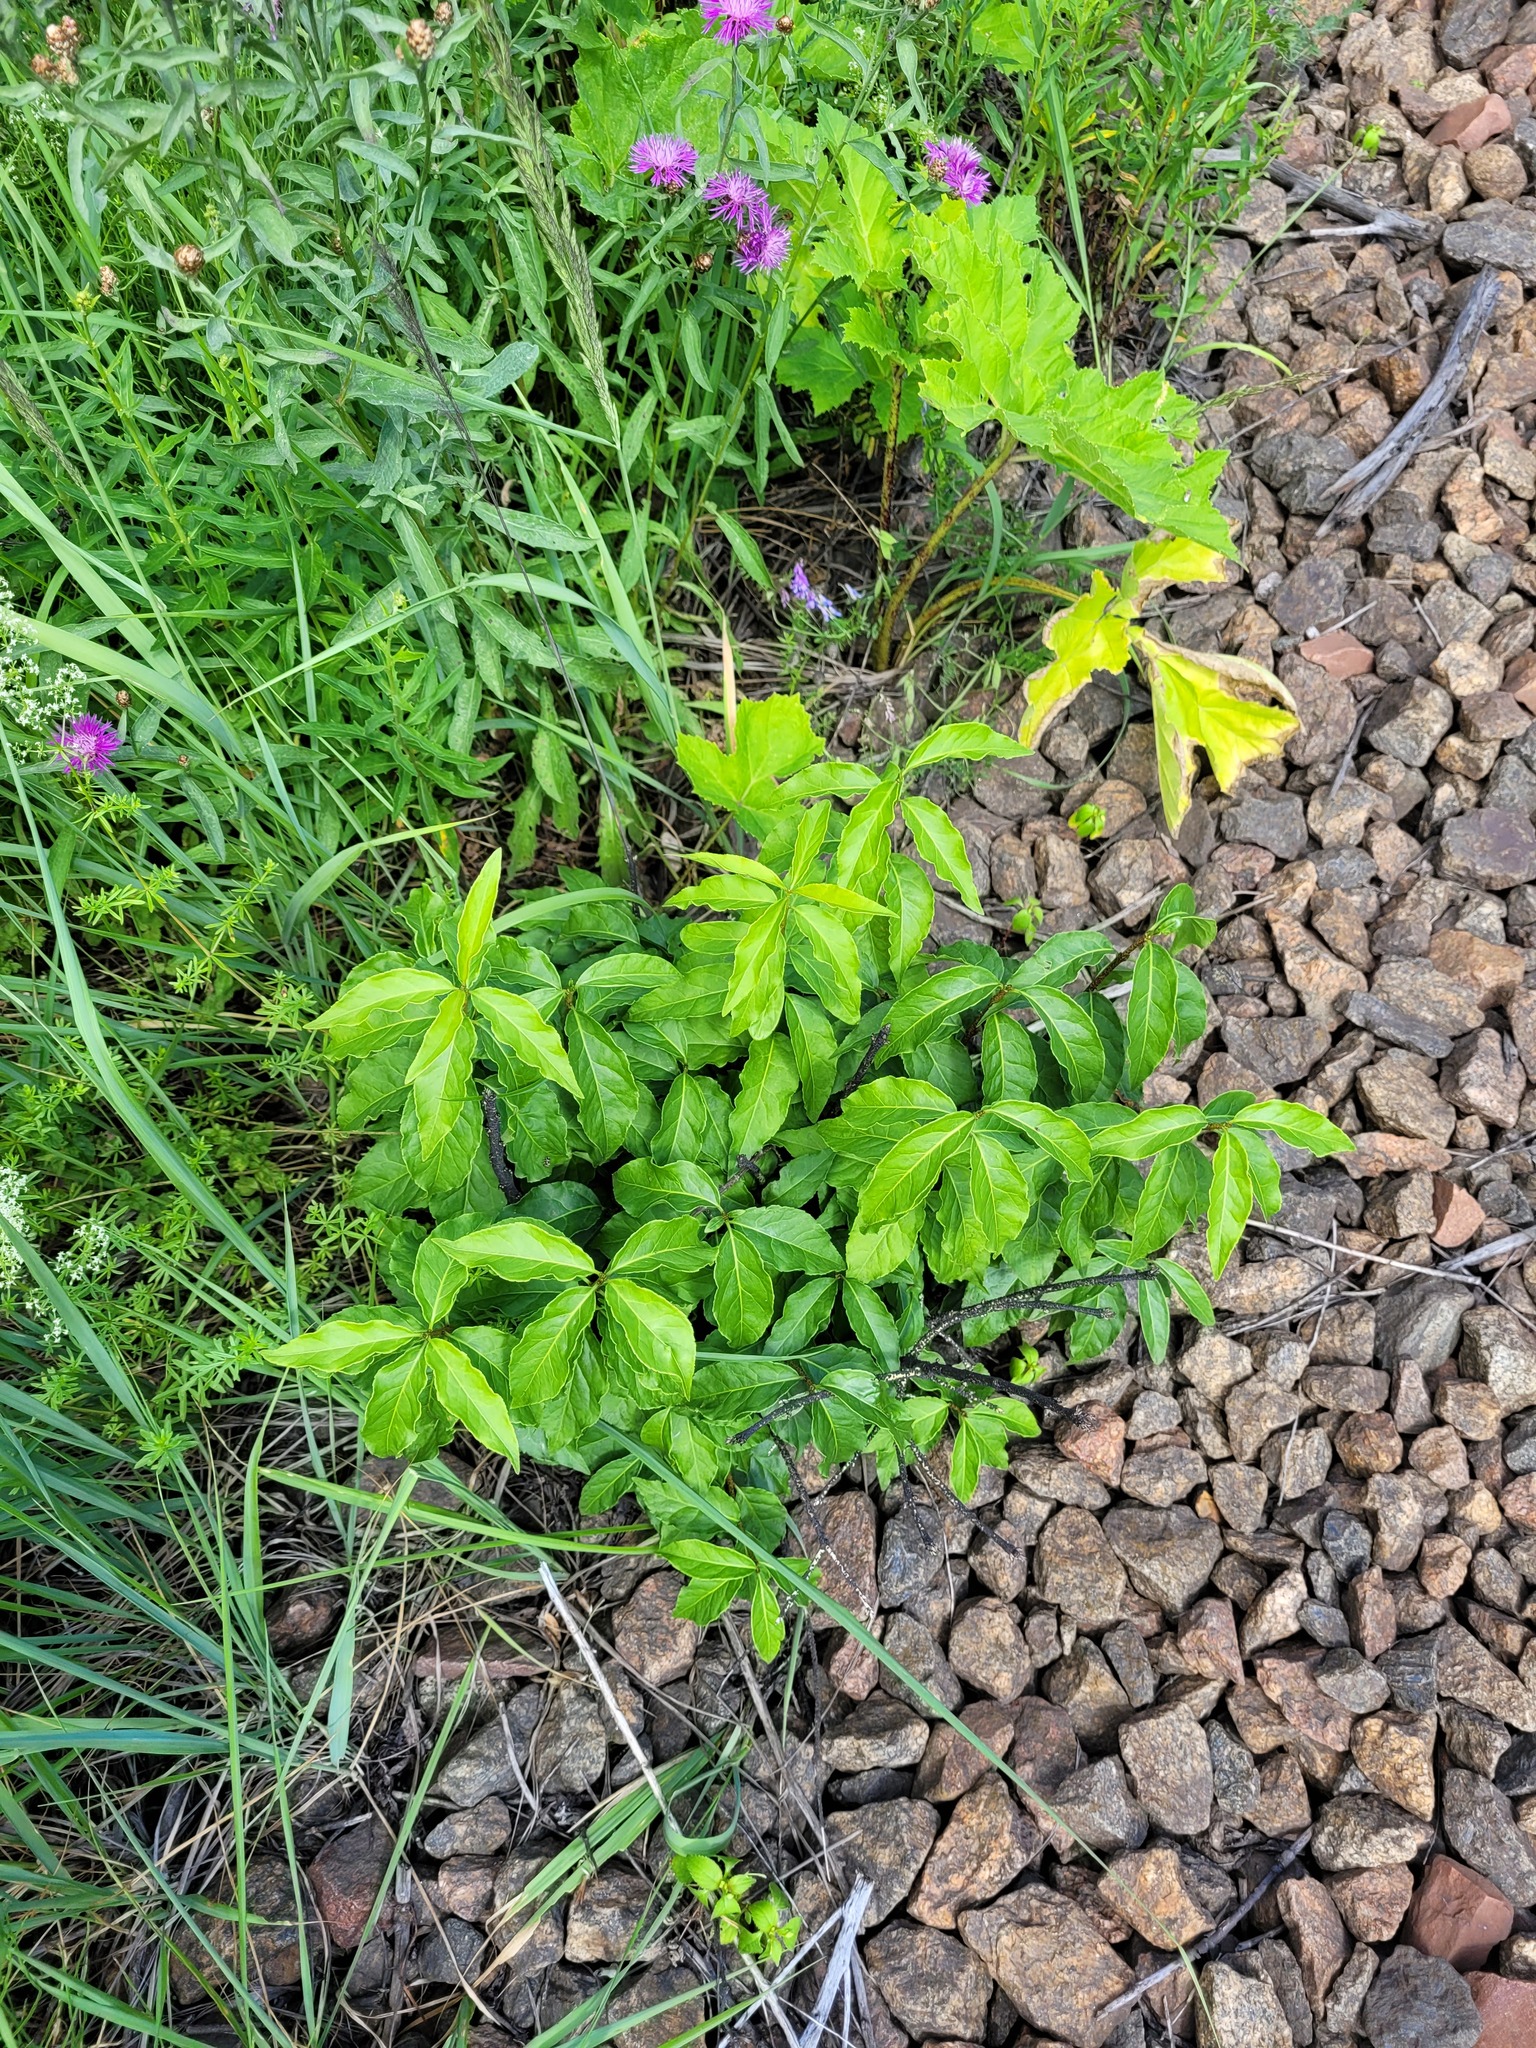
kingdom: Plantae
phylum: Tracheophyta
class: Magnoliopsida
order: Celastrales
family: Celastraceae
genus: Euonymus
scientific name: Euonymus verrucosus
